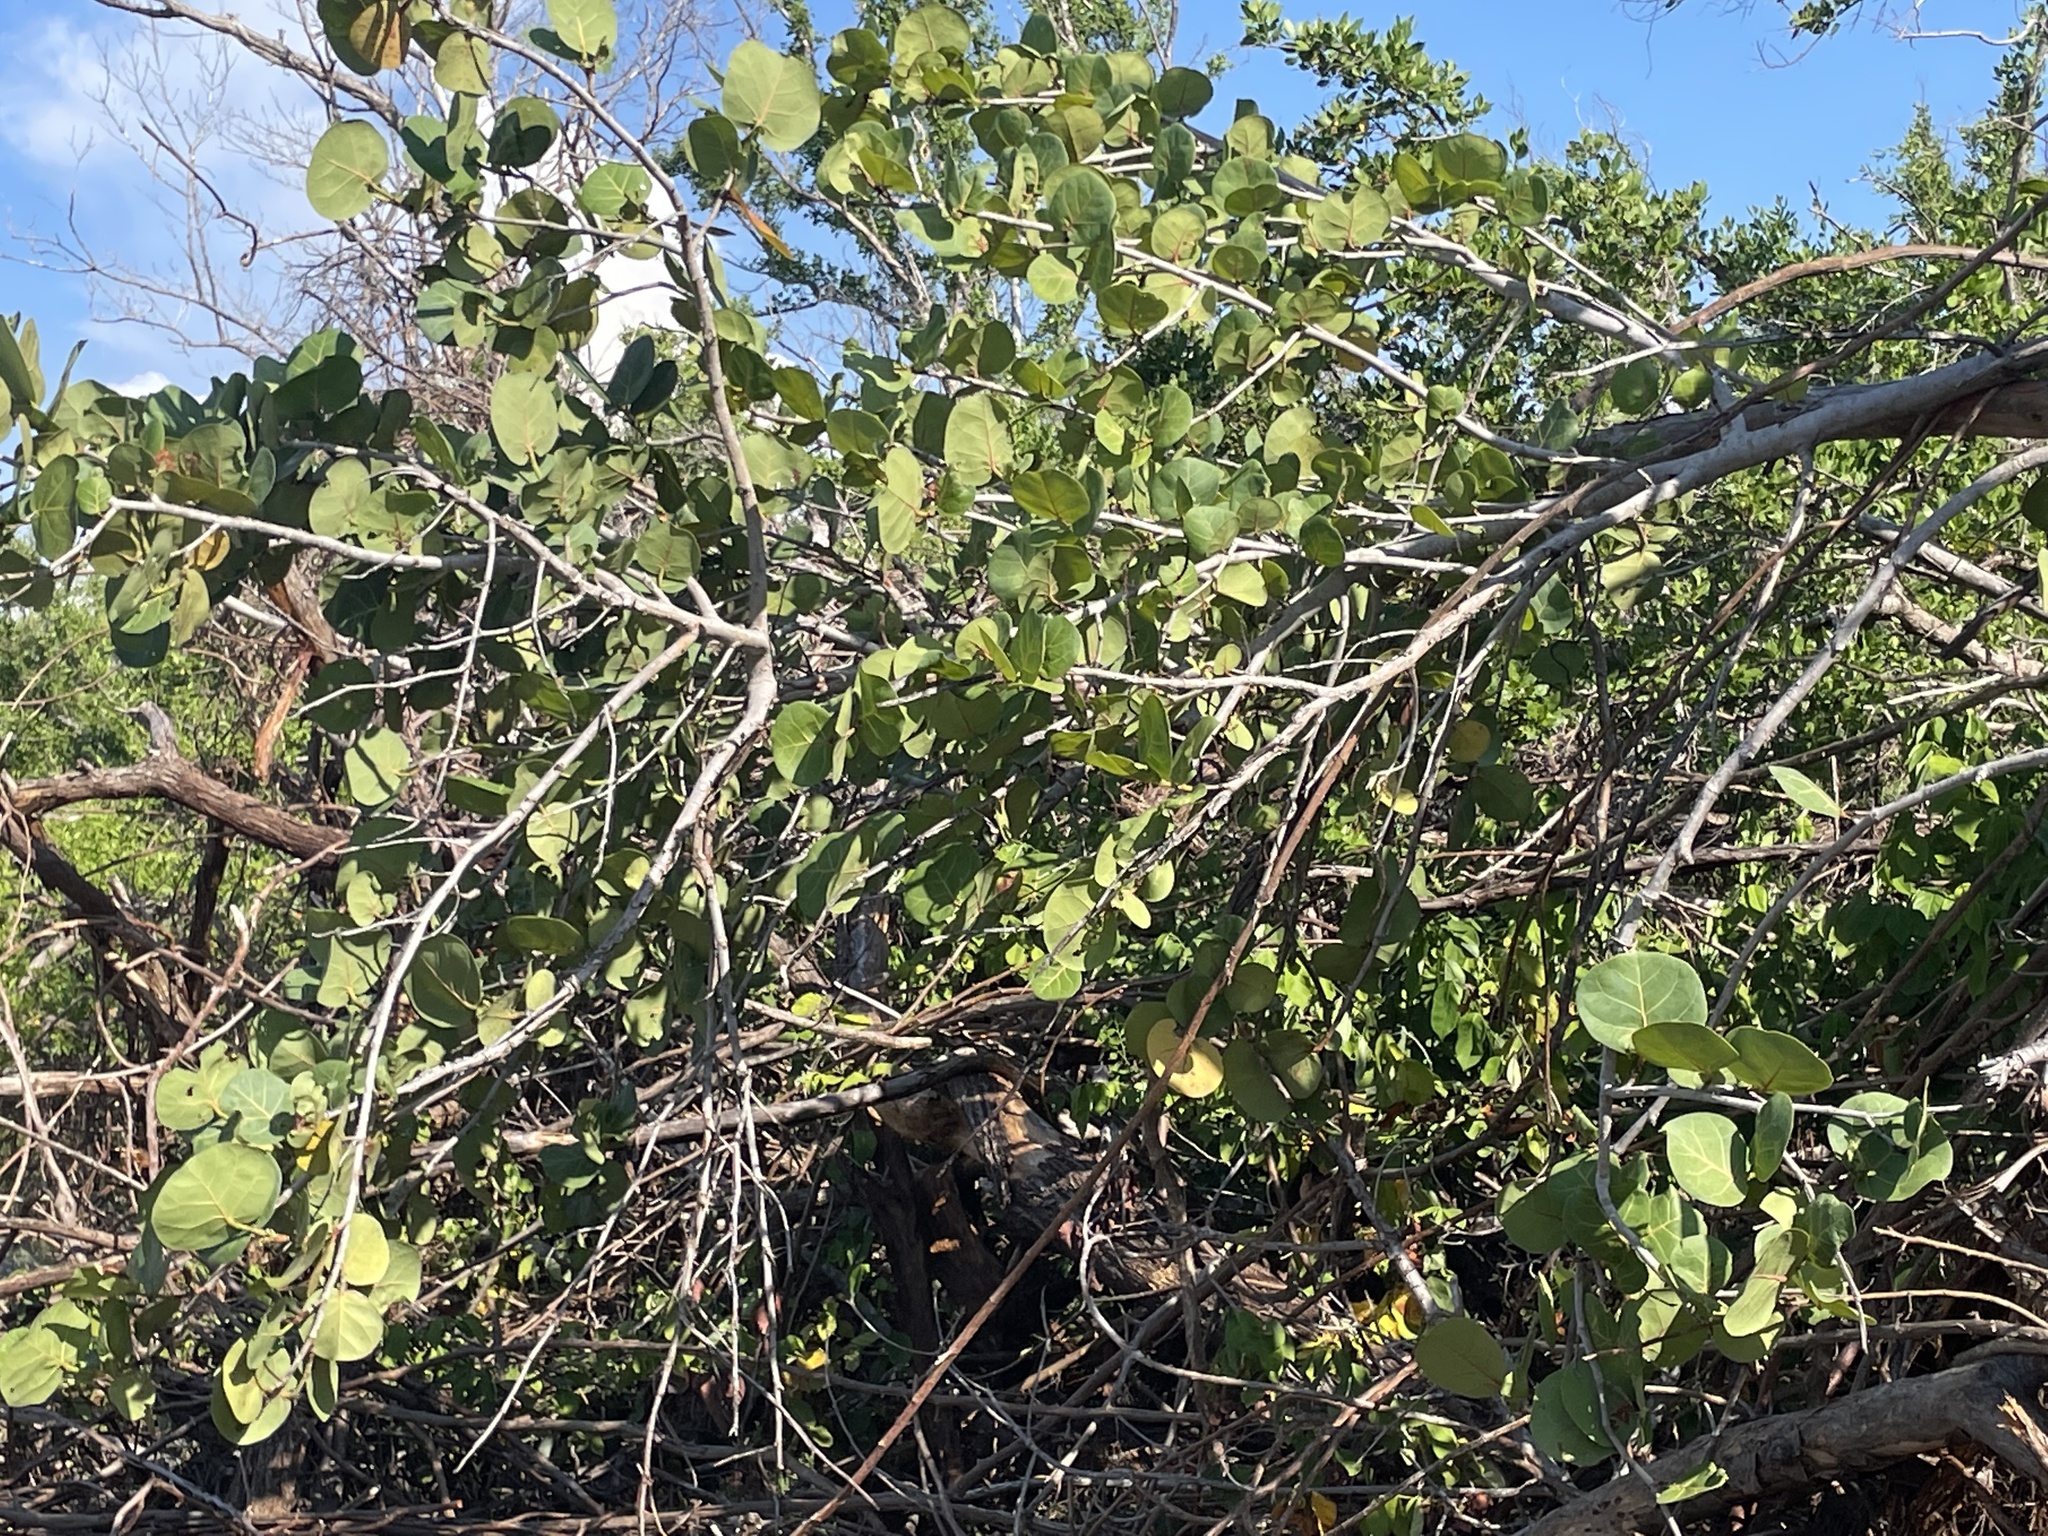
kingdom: Plantae
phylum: Tracheophyta
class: Magnoliopsida
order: Caryophyllales
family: Polygonaceae
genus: Coccoloba
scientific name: Coccoloba uvifera
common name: Seagrape
